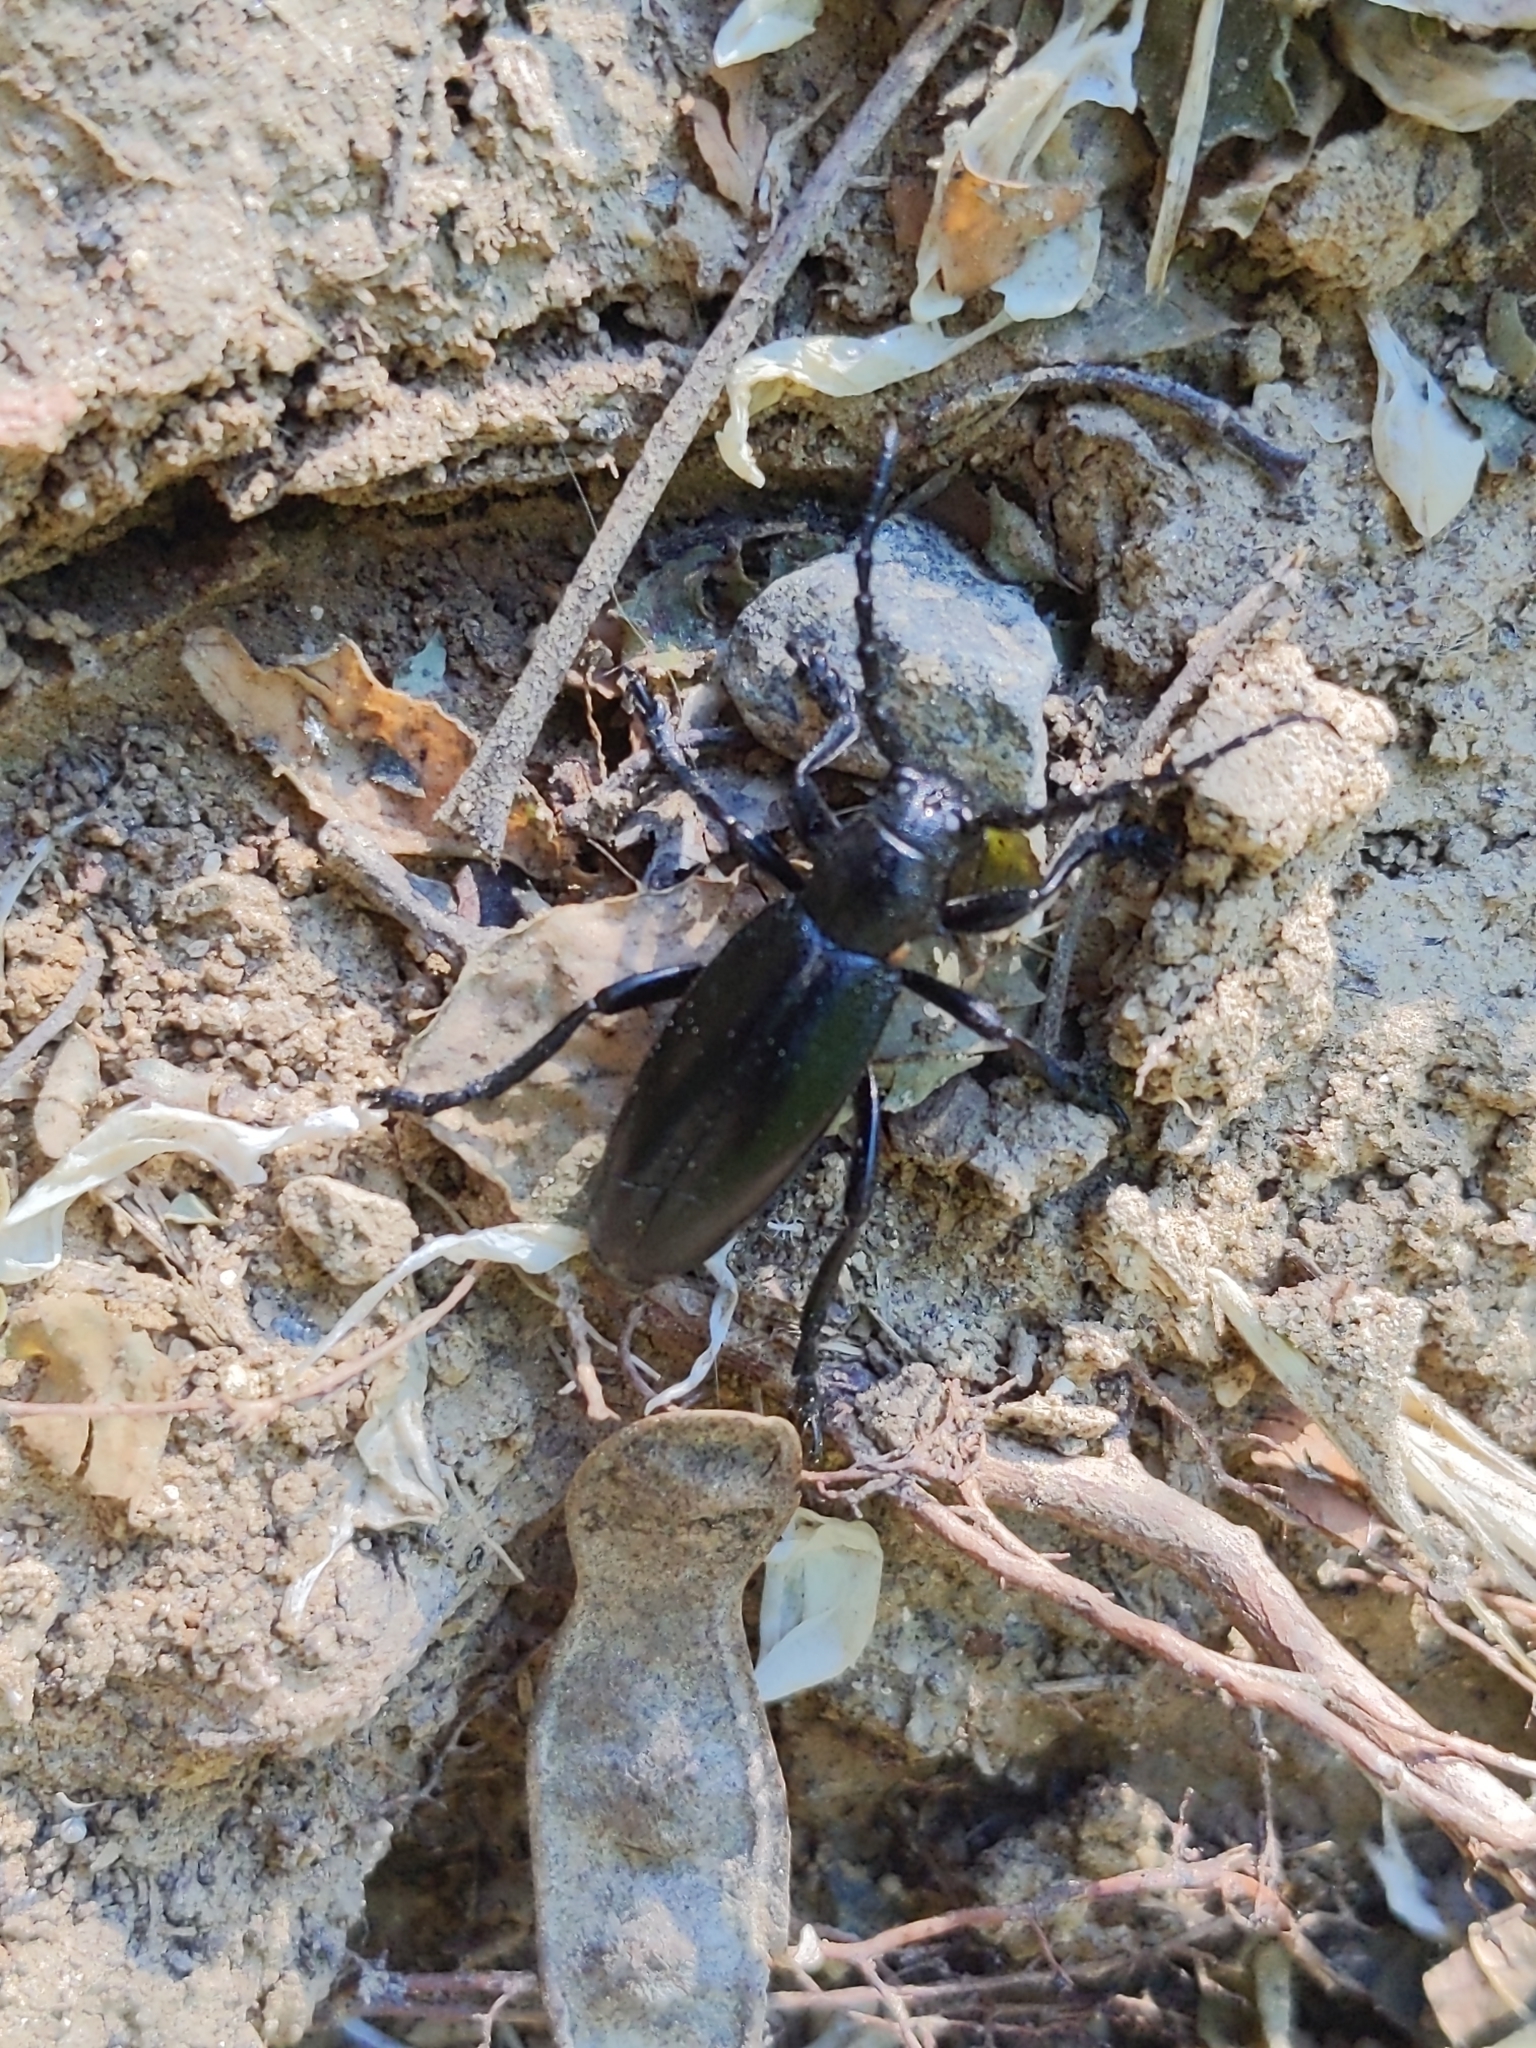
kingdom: Animalia
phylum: Arthropoda
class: Insecta
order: Coleoptera
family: Cerambycidae
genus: Dorcadion
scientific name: Dorcadion aethiops
